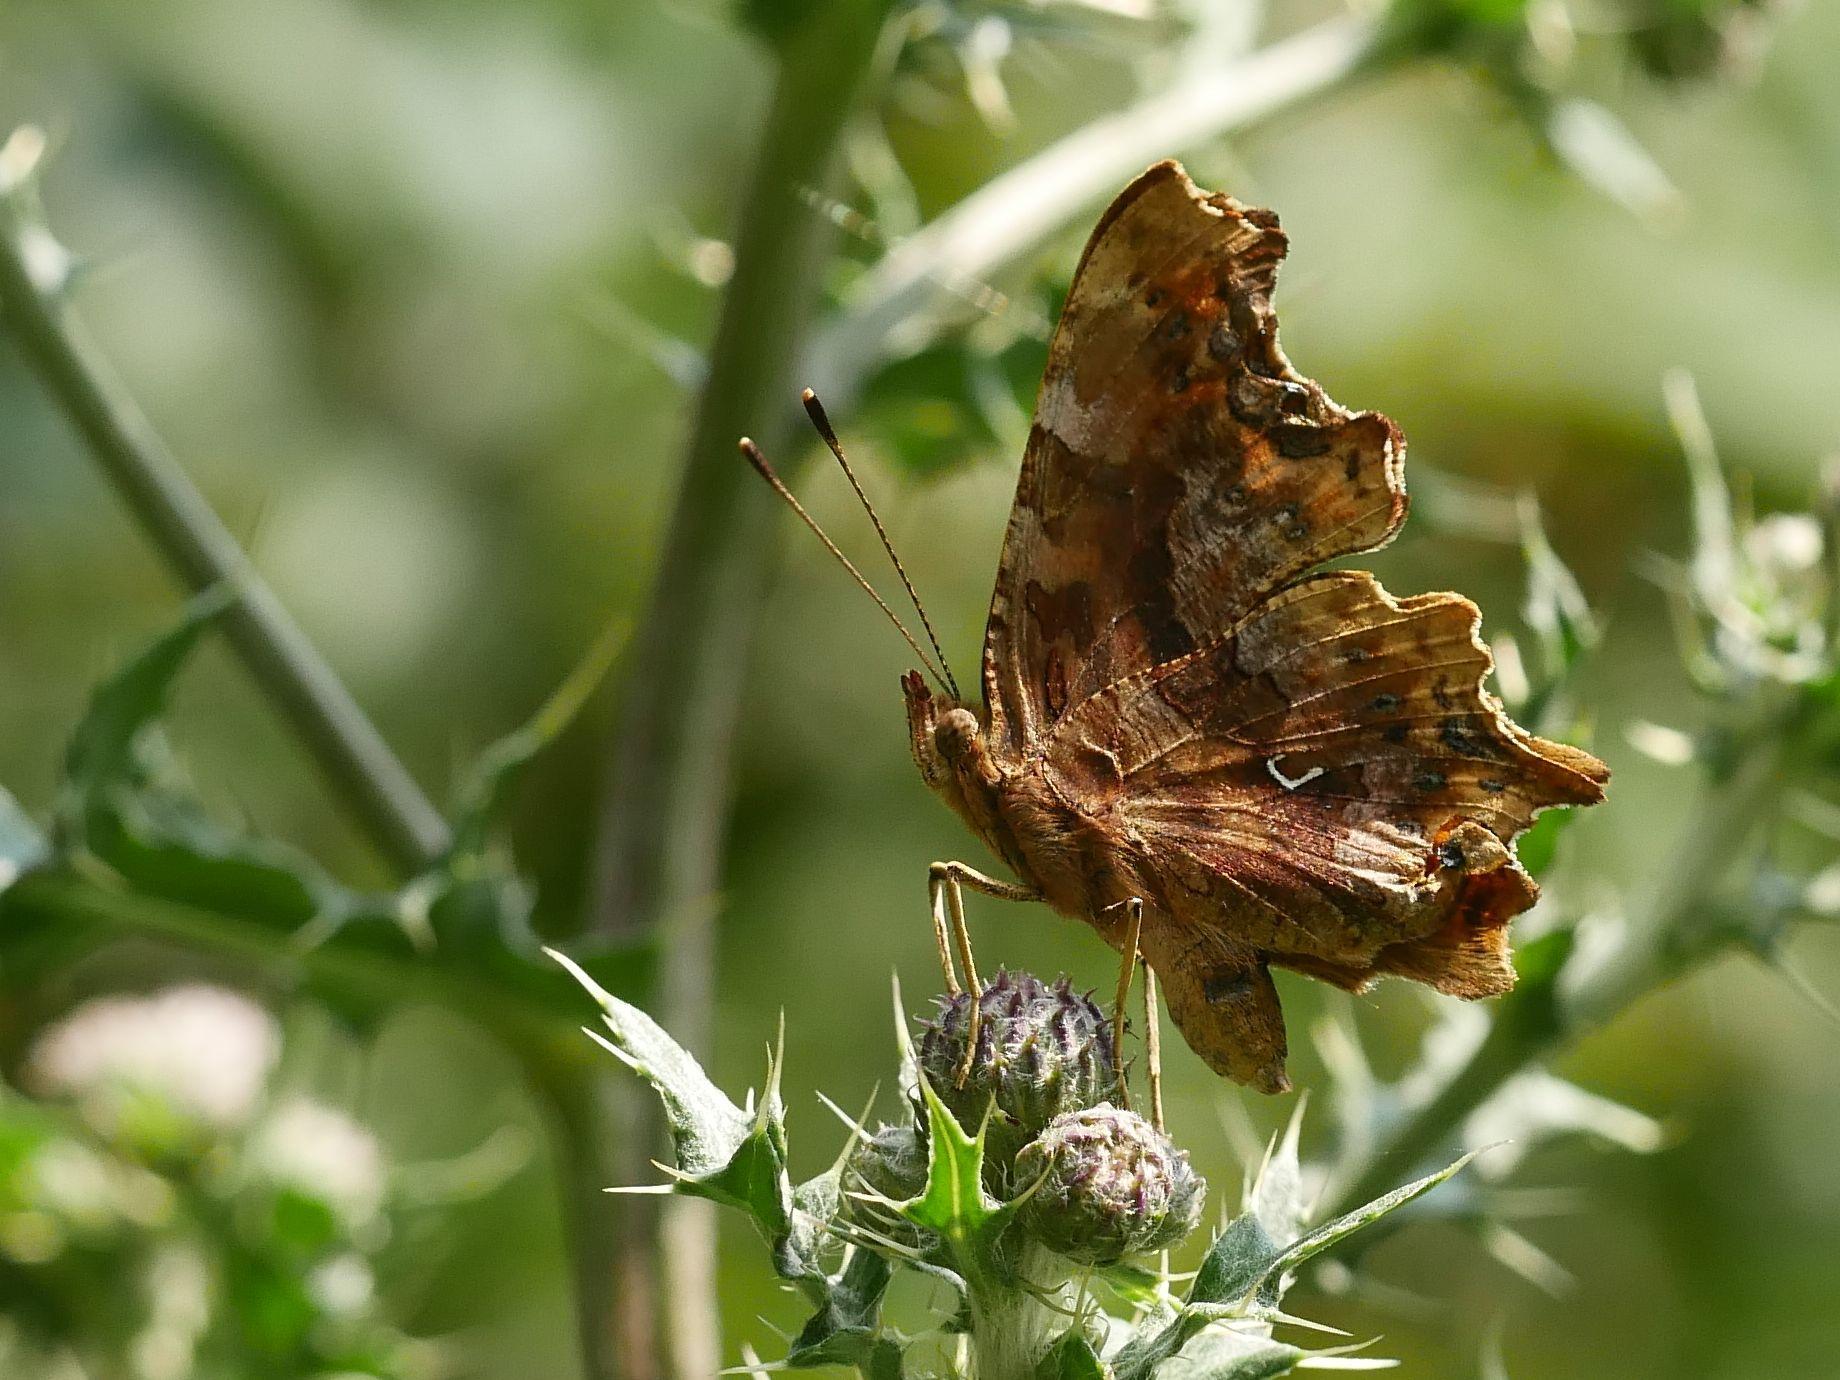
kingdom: Animalia
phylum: Arthropoda
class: Insecta
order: Lepidoptera
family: Nymphalidae
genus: Polygonia
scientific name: Polygonia c-album
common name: Comma
